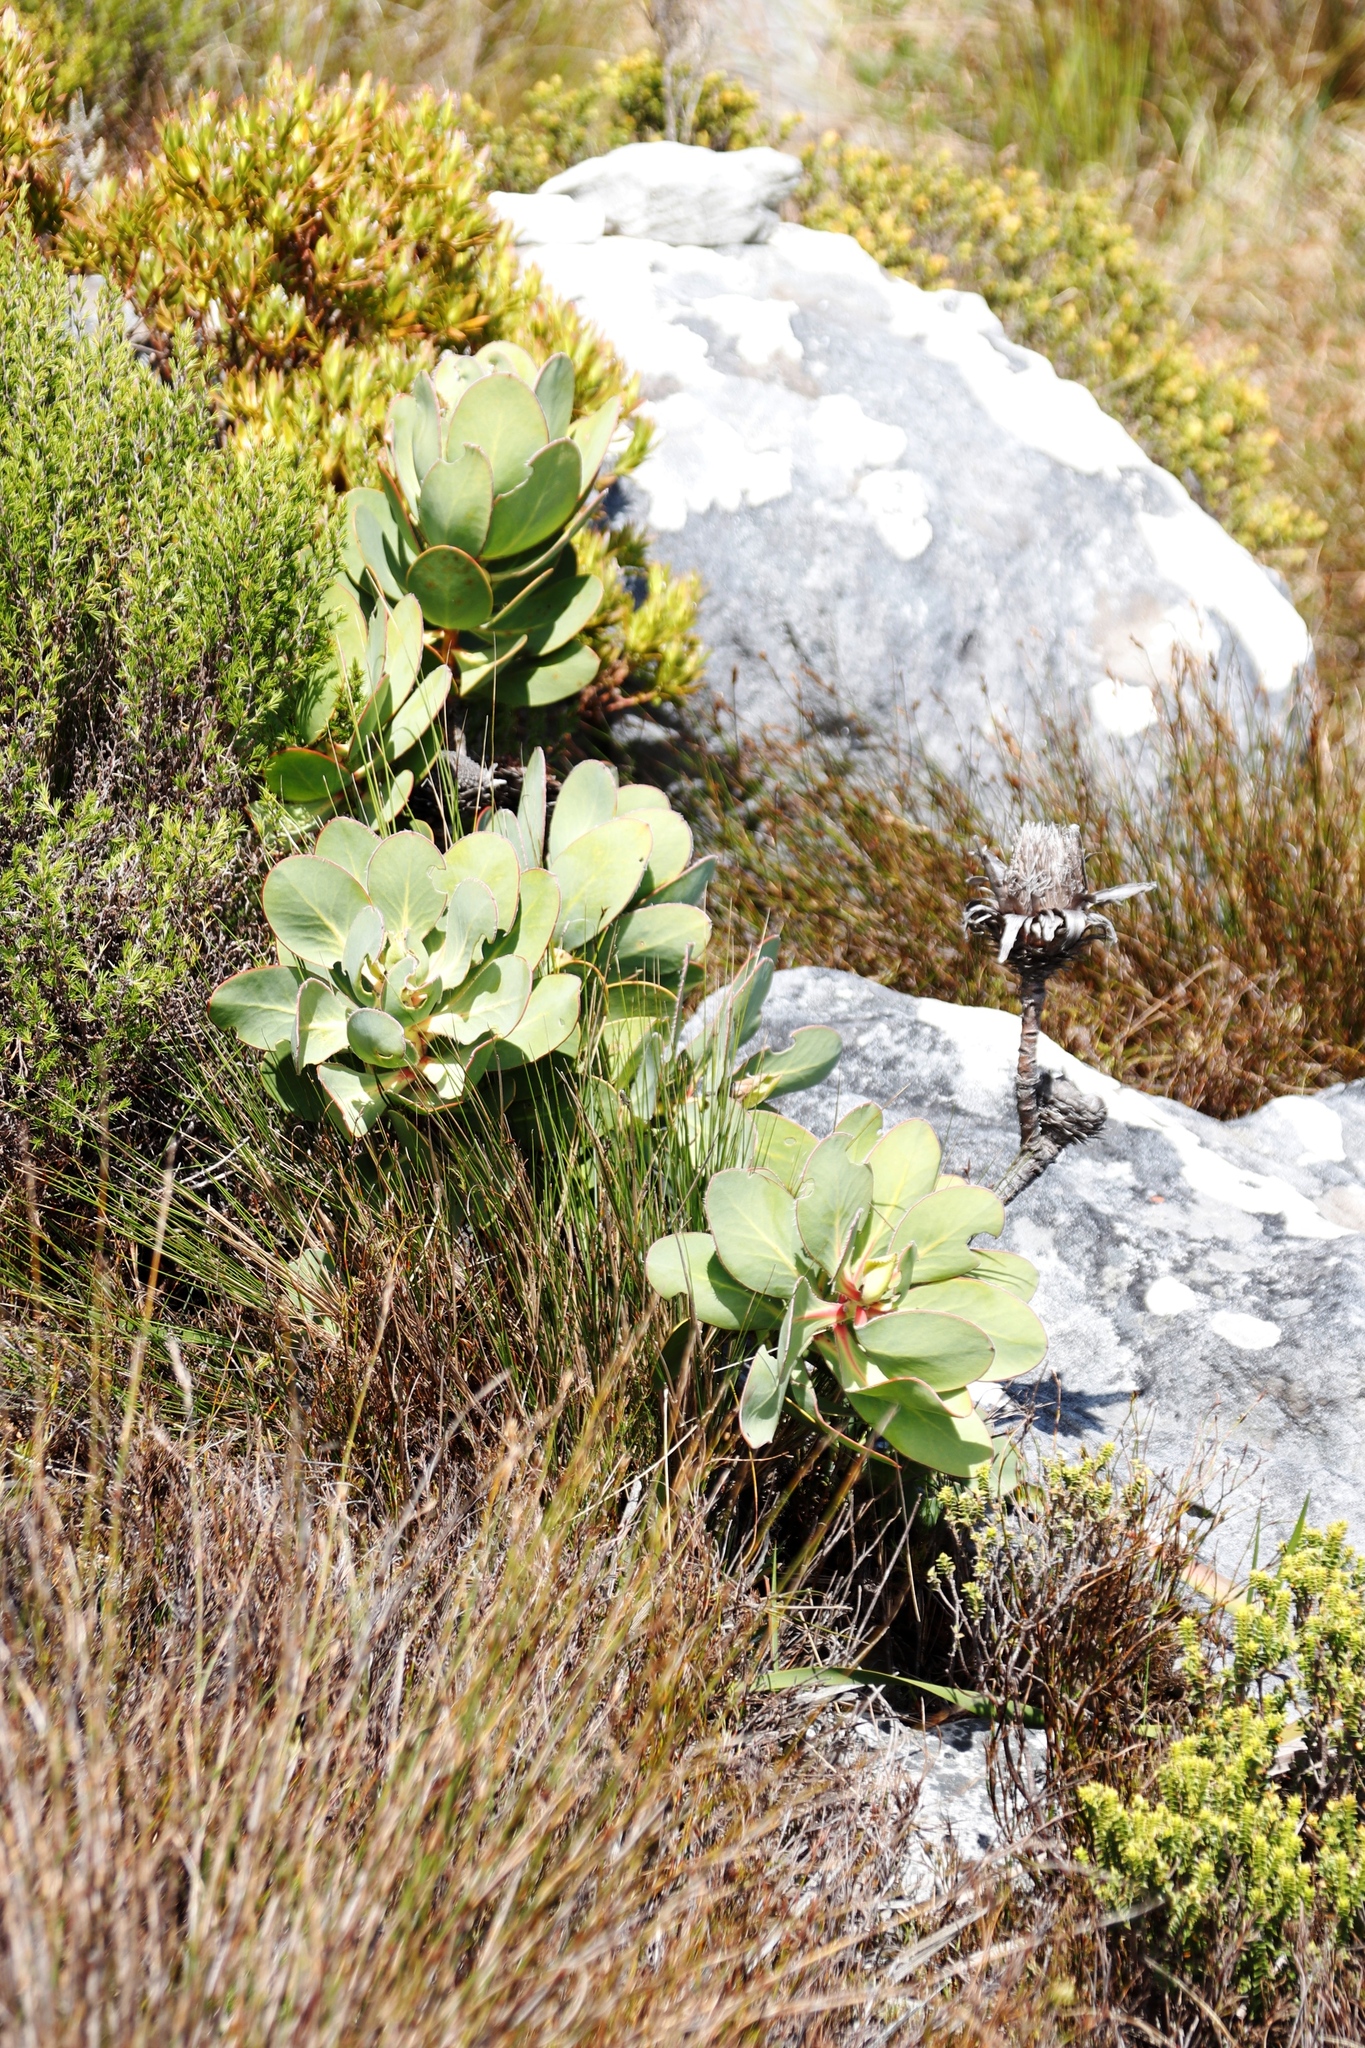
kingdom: Plantae
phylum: Tracheophyta
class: Magnoliopsida
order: Proteales
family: Proteaceae
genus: Protea
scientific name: Protea speciosa
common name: Brown-beard sugarbush
